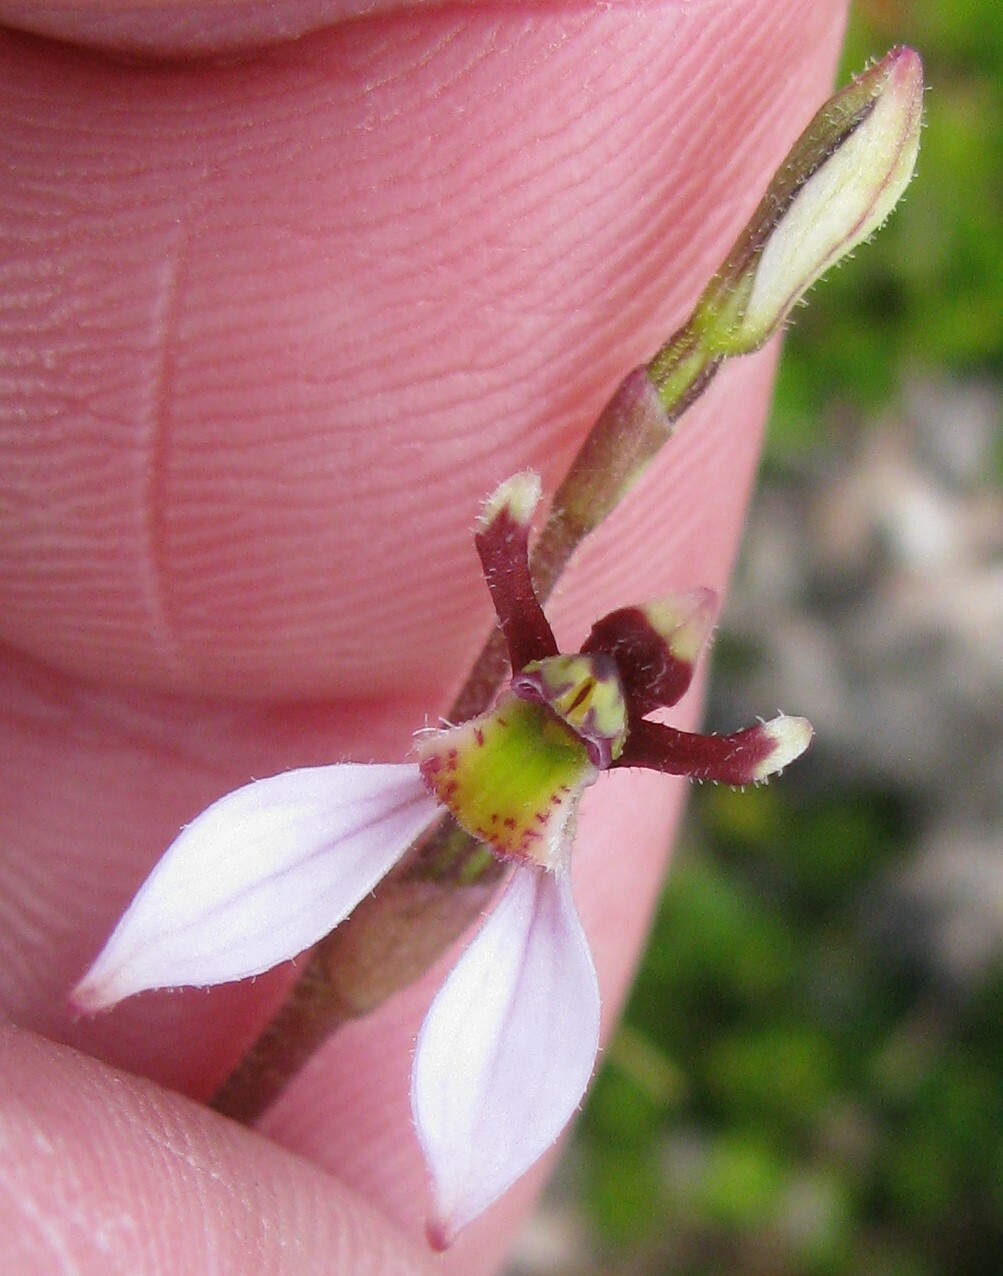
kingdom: Plantae
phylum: Tracheophyta
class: Liliopsida
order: Asparagales
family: Orchidaceae
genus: Eriochilus
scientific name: Eriochilus cucullatus
